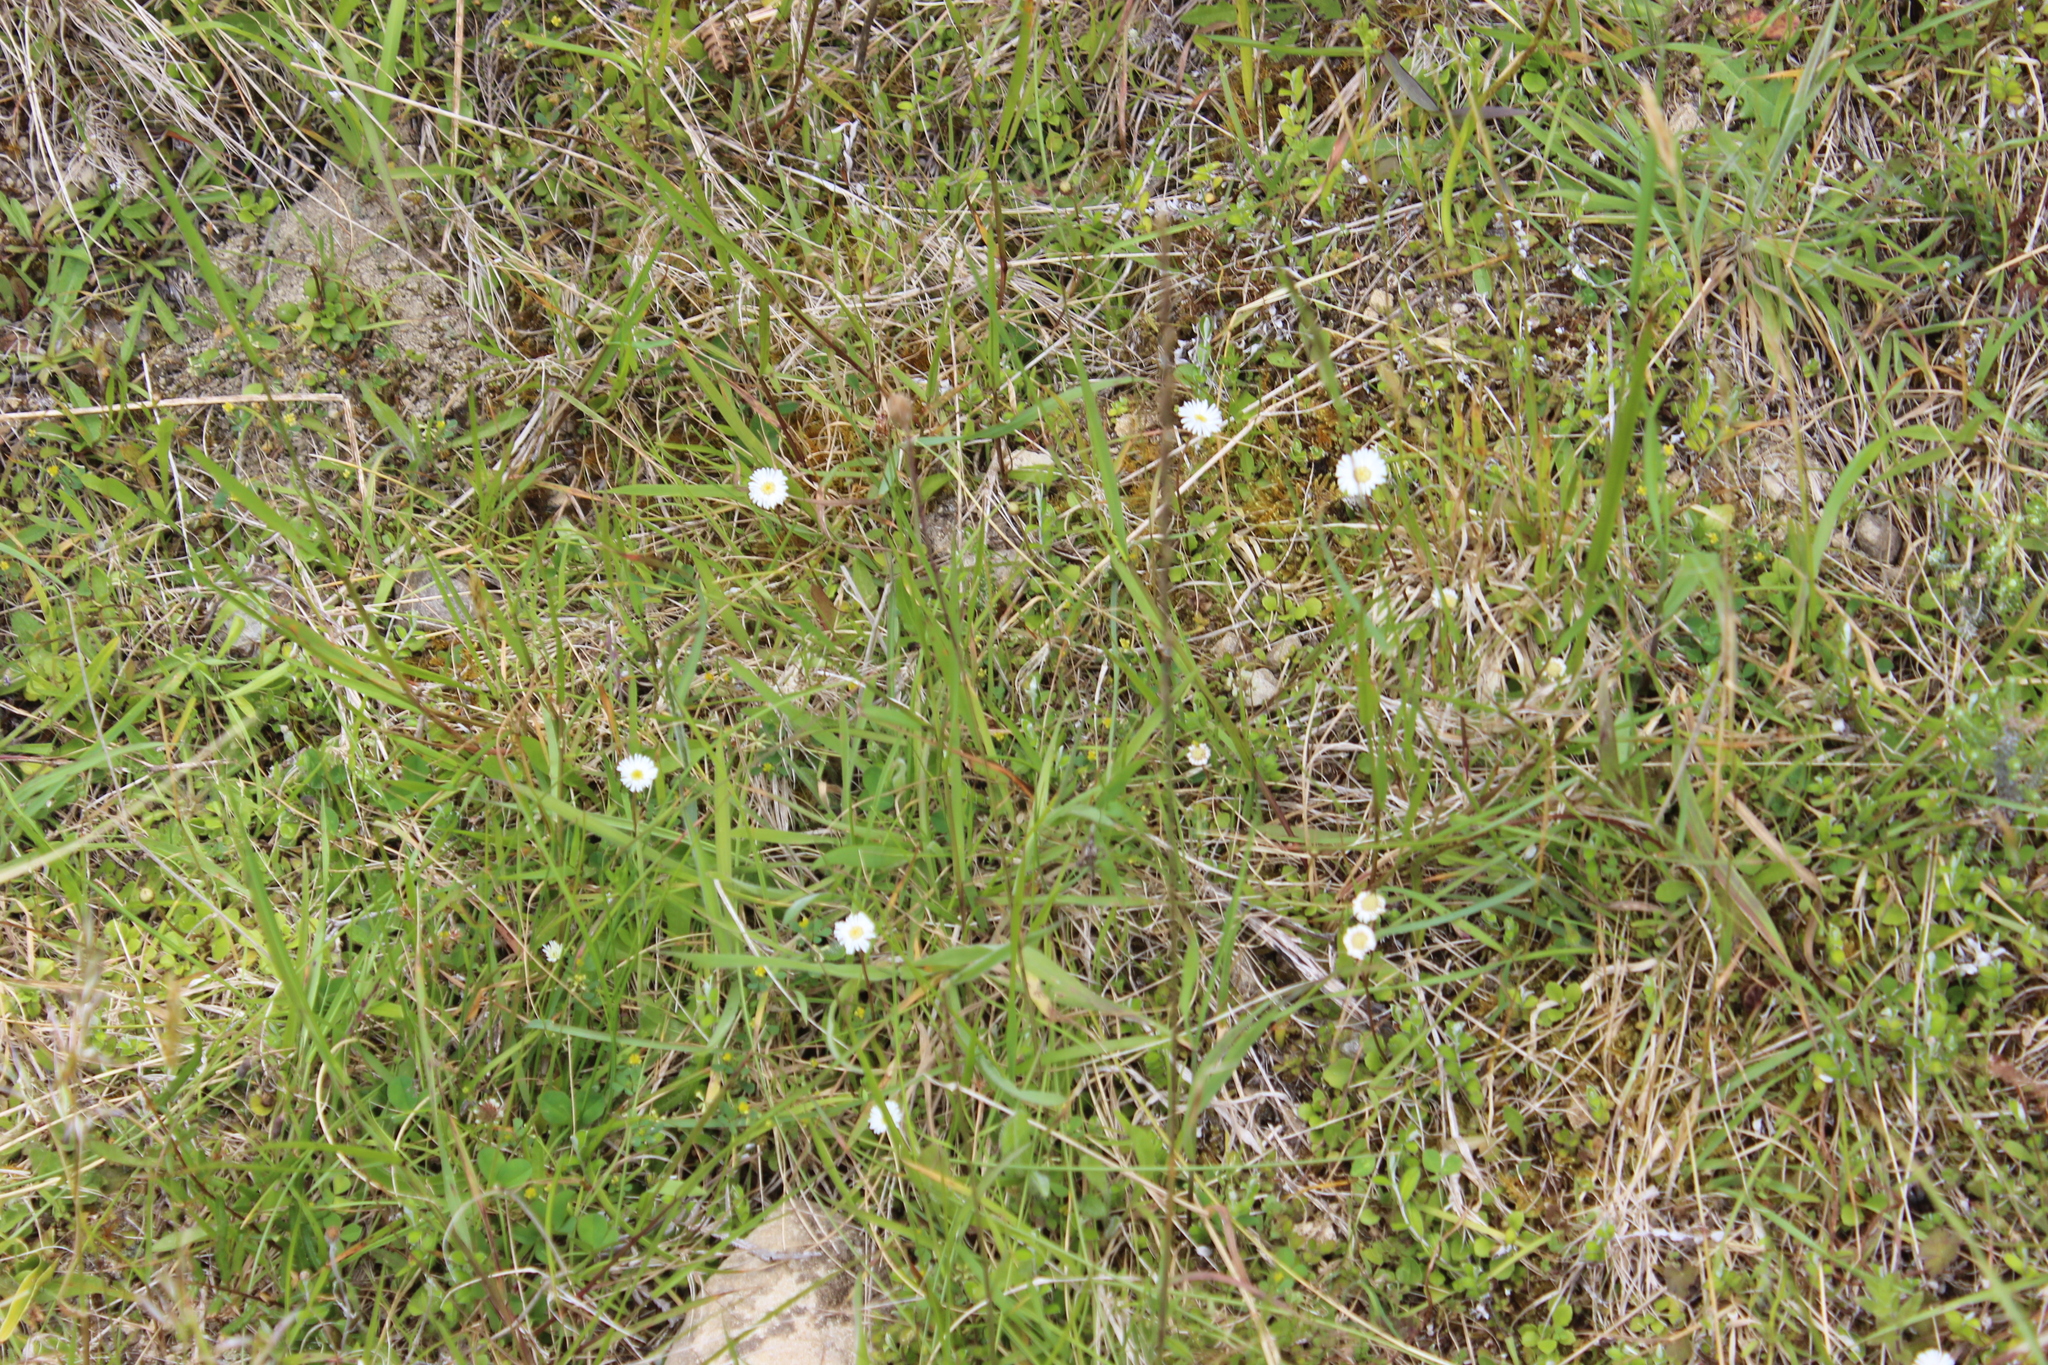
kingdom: Plantae
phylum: Tracheophyta
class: Magnoliopsida
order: Asterales
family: Asteraceae
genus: Lagenophora
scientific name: Lagenophora pumila
